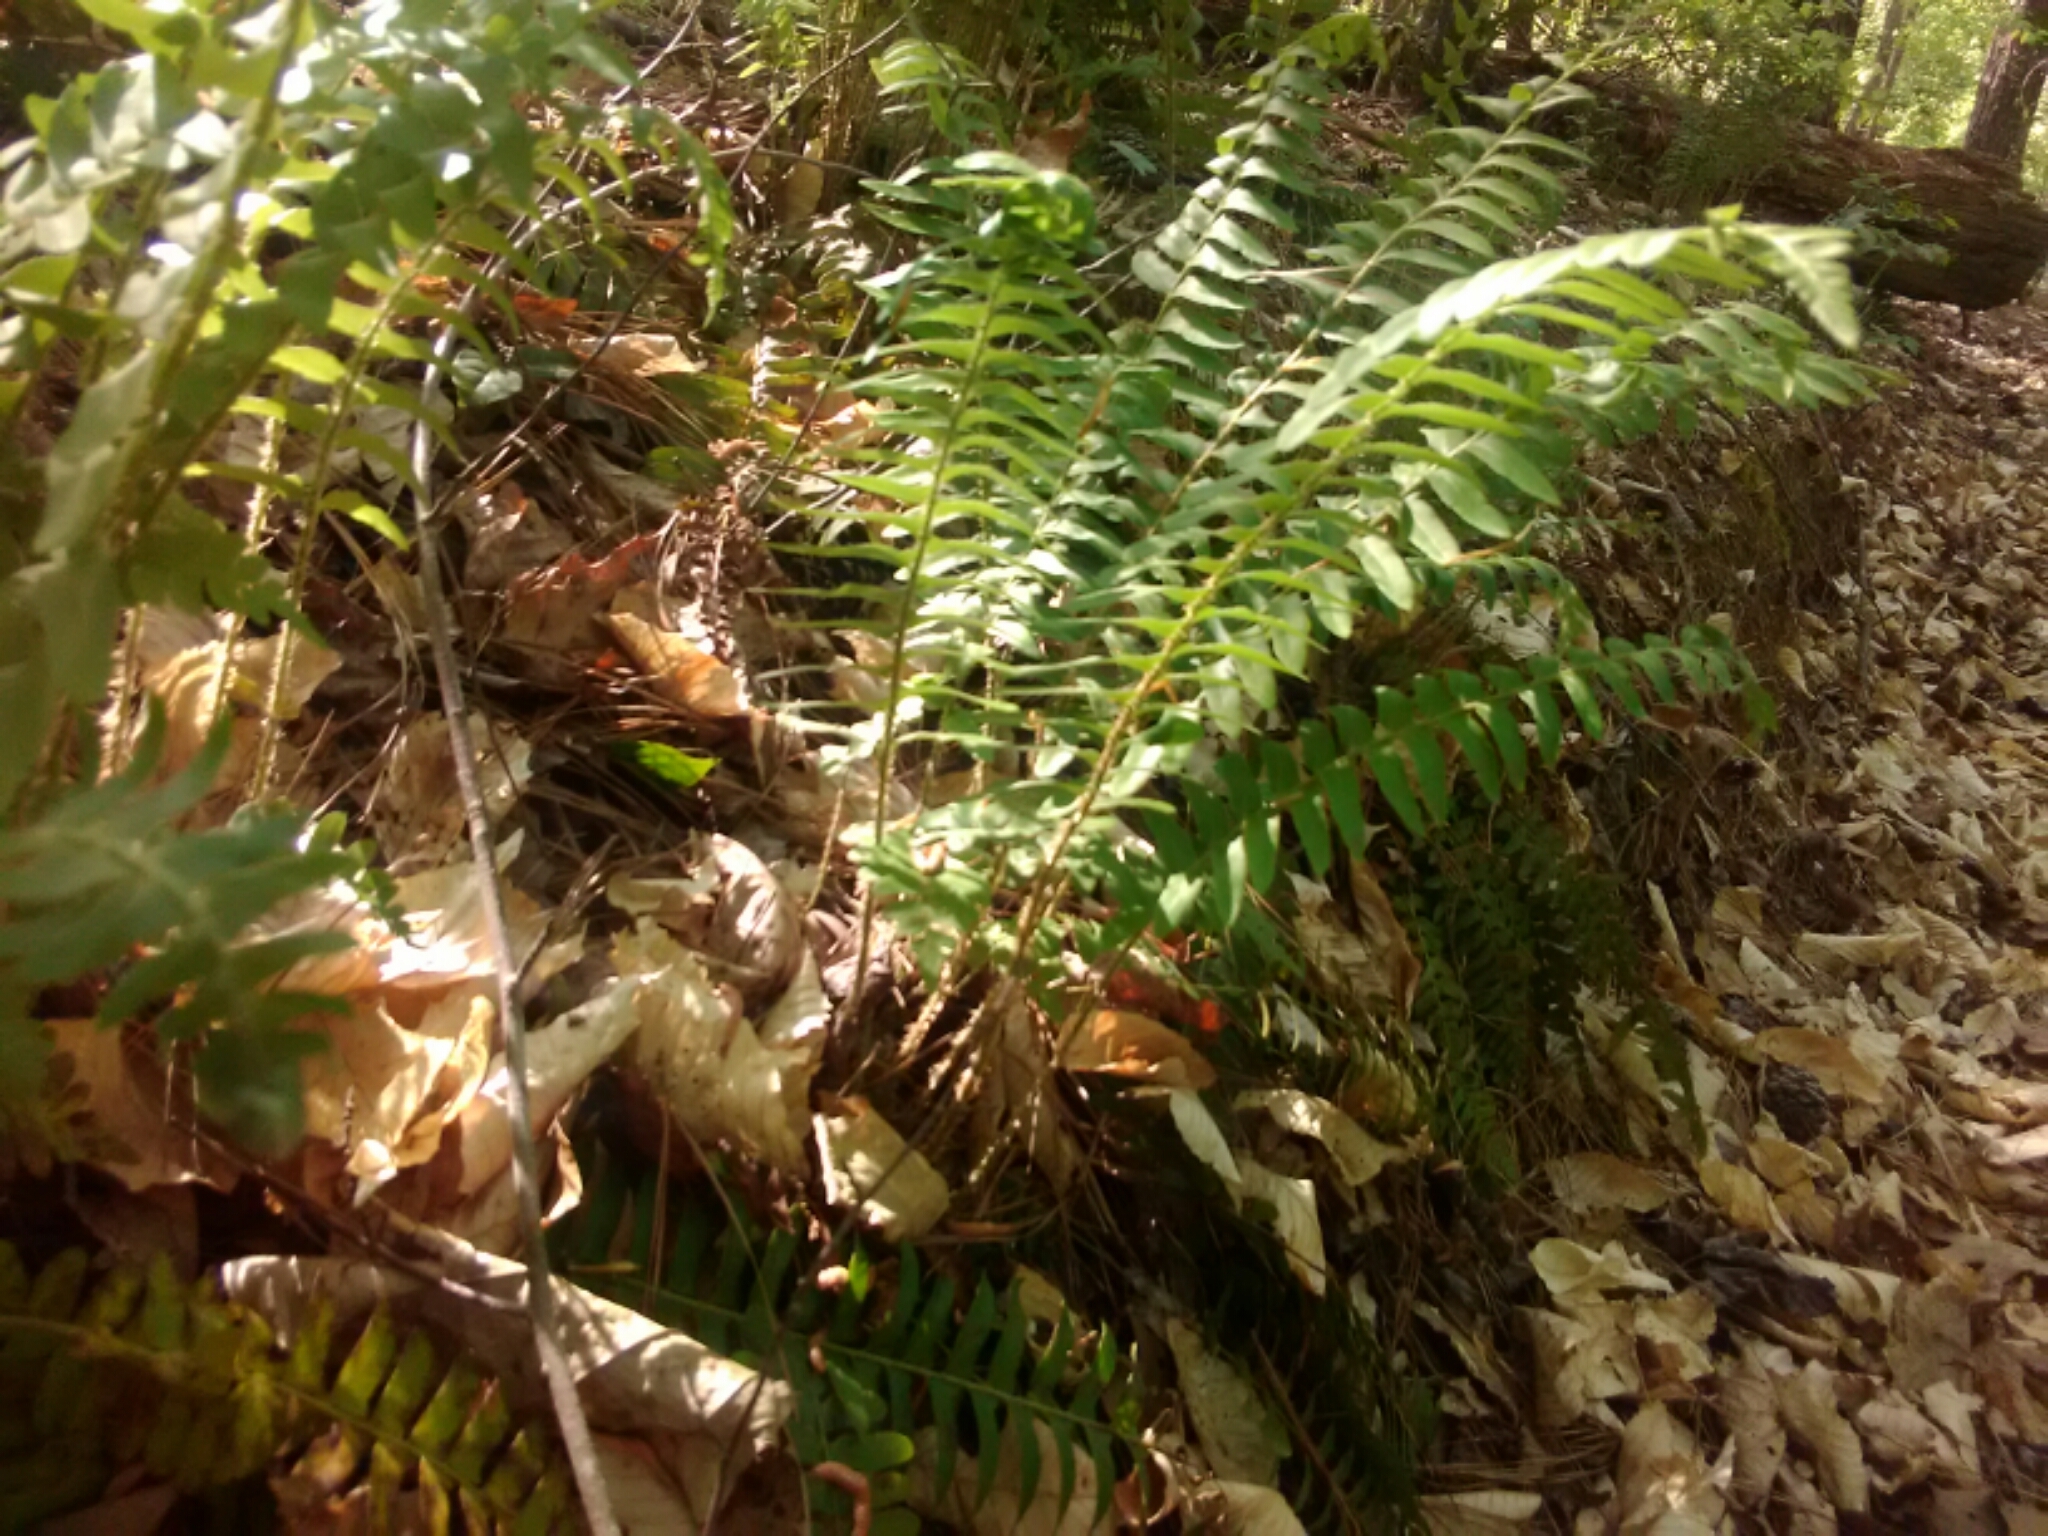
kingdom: Plantae
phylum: Tracheophyta
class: Polypodiopsida
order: Polypodiales
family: Dryopteridaceae
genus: Polystichum
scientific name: Polystichum acrostichoides
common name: Christmas fern
